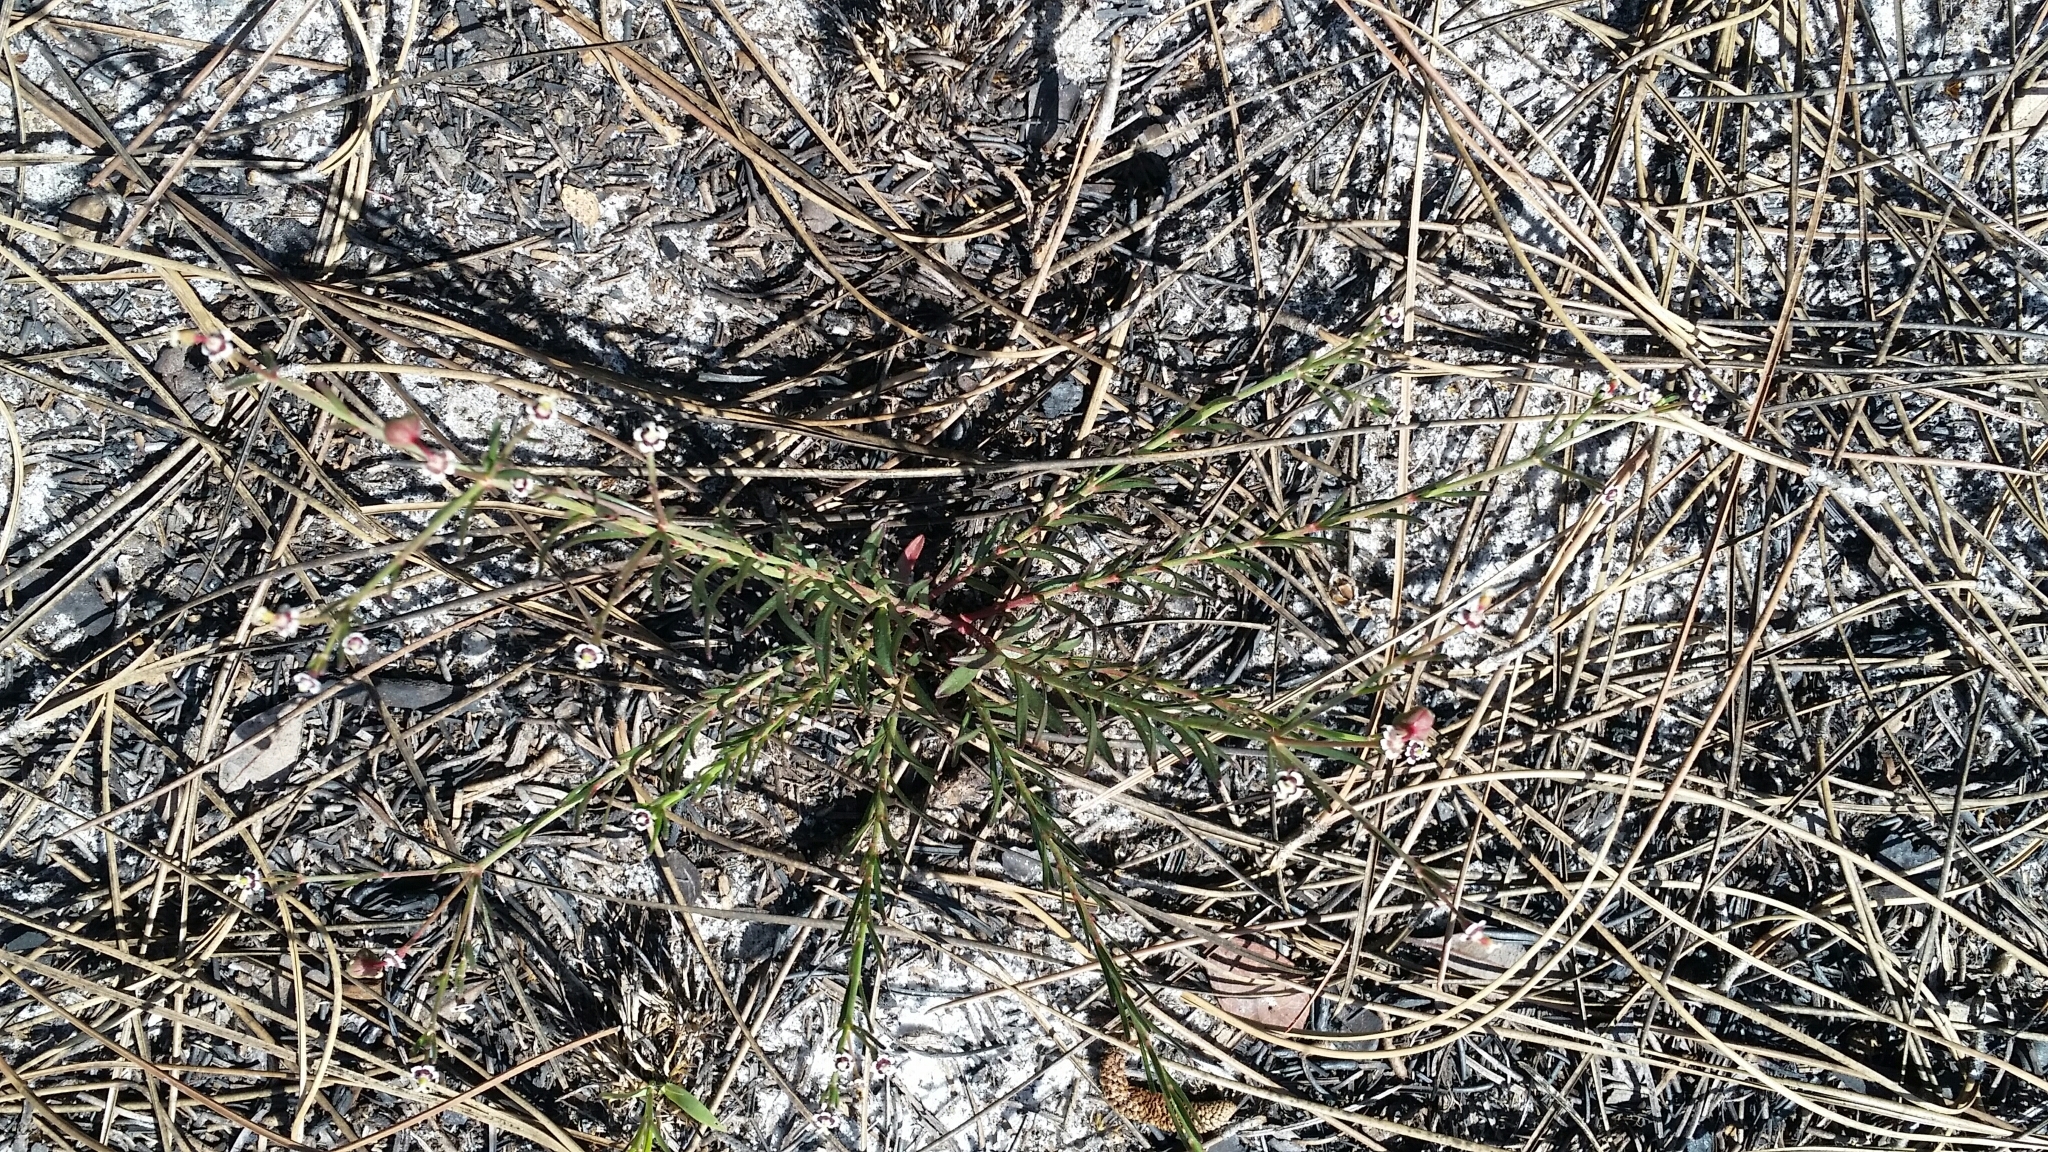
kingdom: Plantae
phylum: Tracheophyta
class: Magnoliopsida
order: Malpighiales
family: Euphorbiaceae
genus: Euphorbia
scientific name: Euphorbia polyphylla
